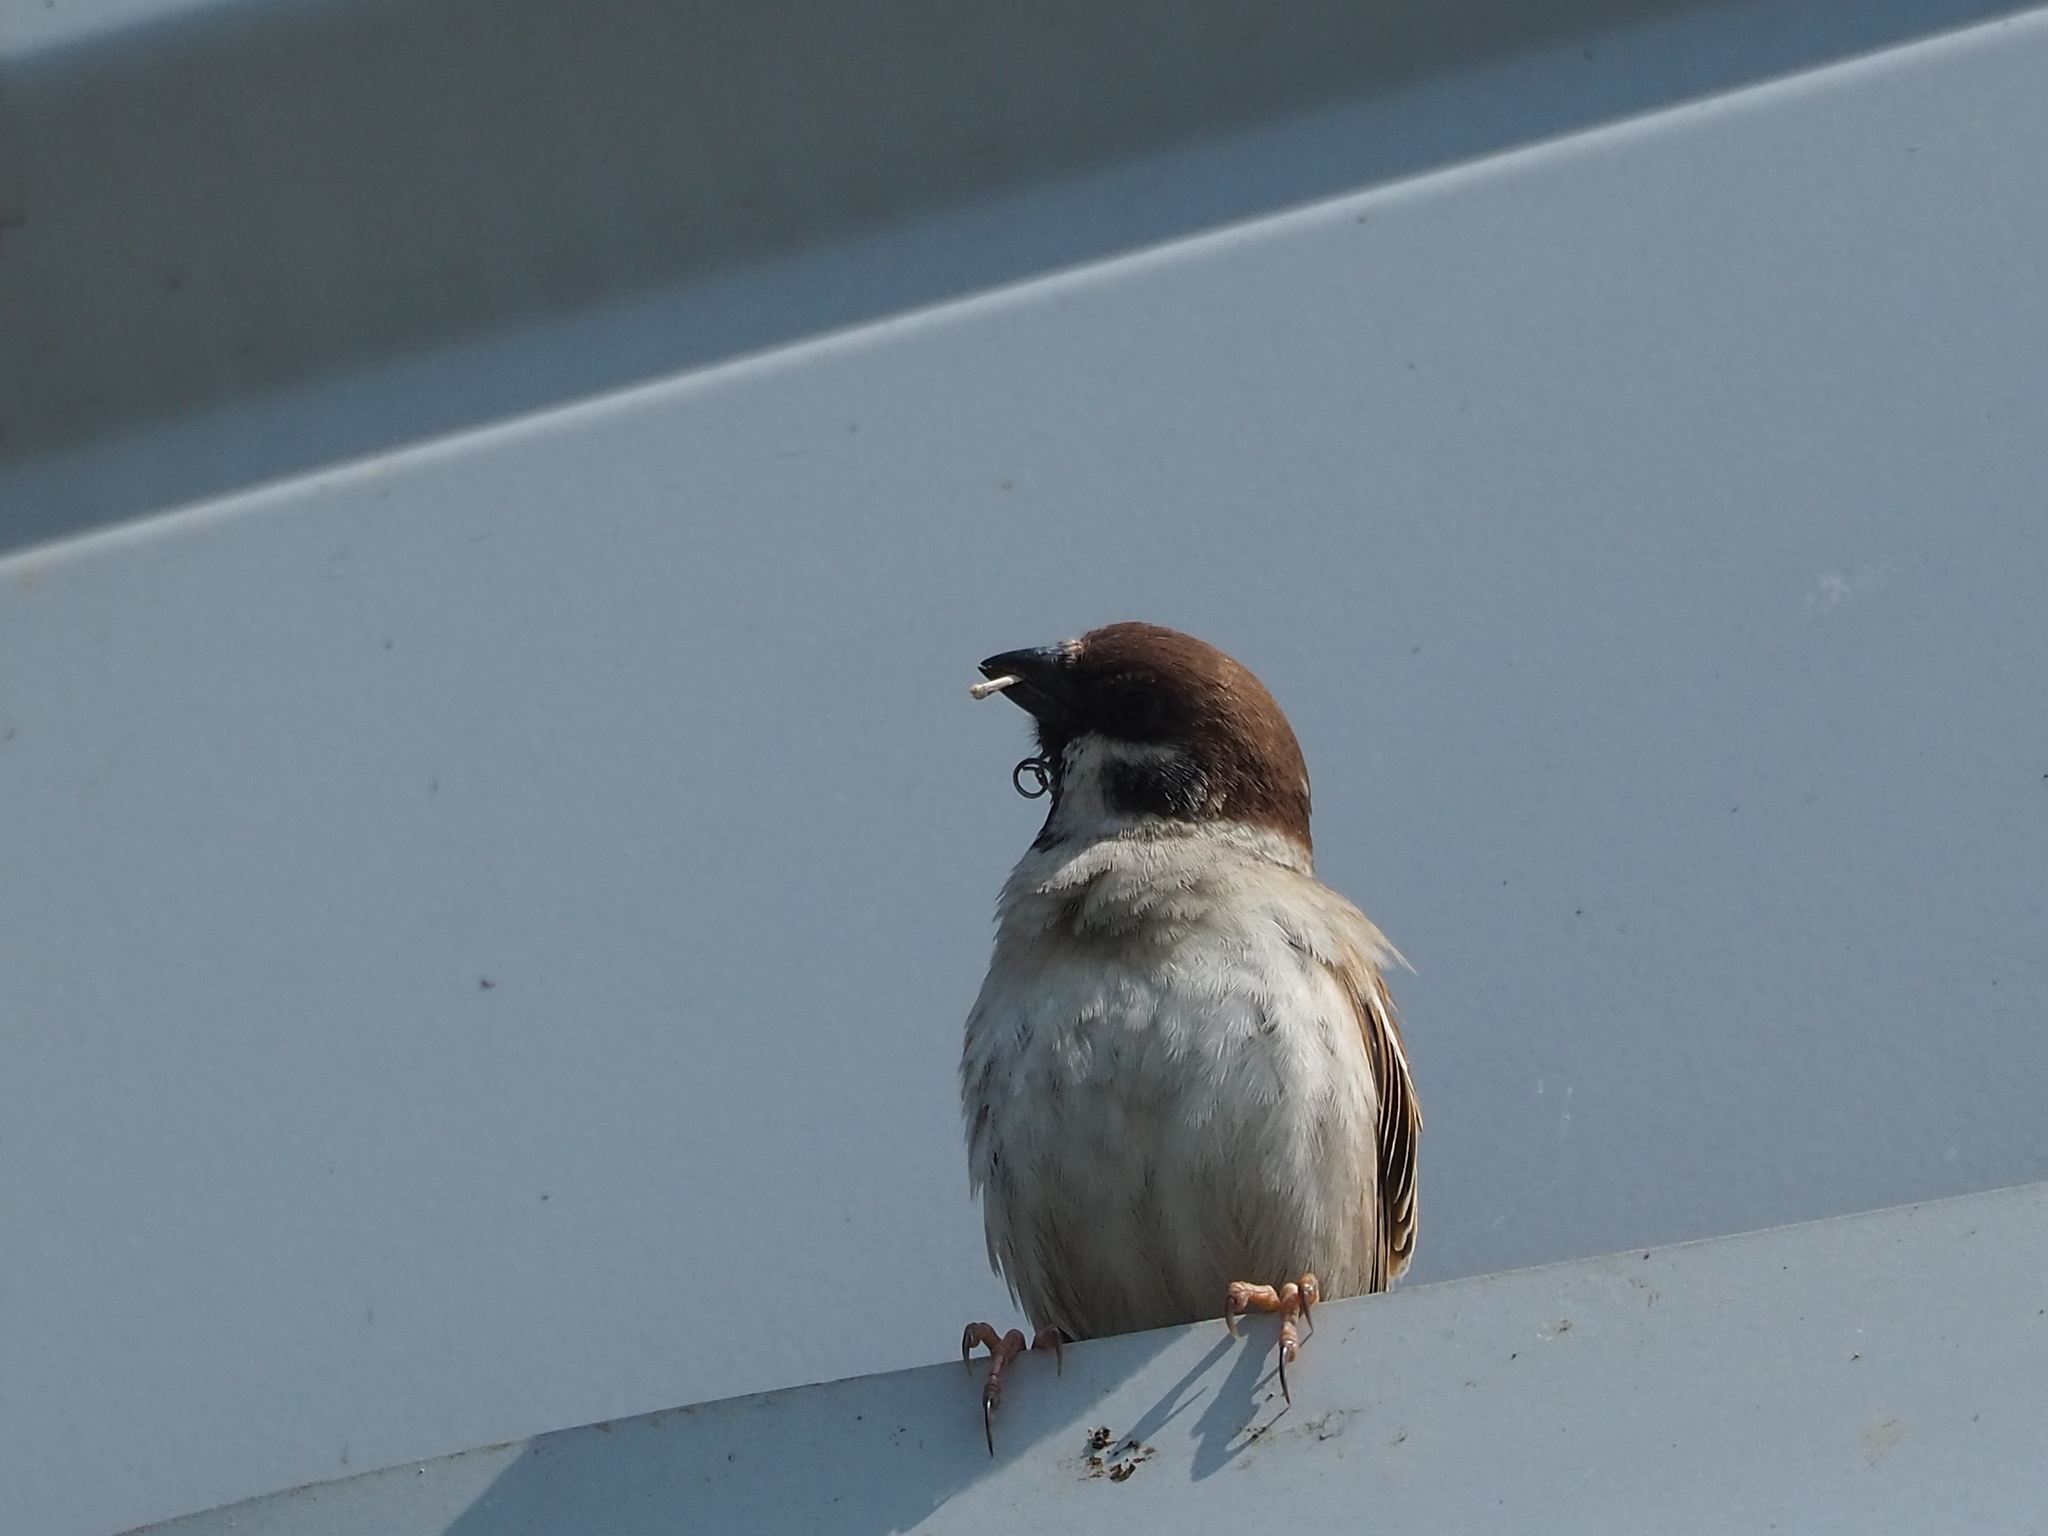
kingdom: Animalia
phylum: Chordata
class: Aves
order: Passeriformes
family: Passeridae
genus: Passer
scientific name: Passer montanus
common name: Eurasian tree sparrow
